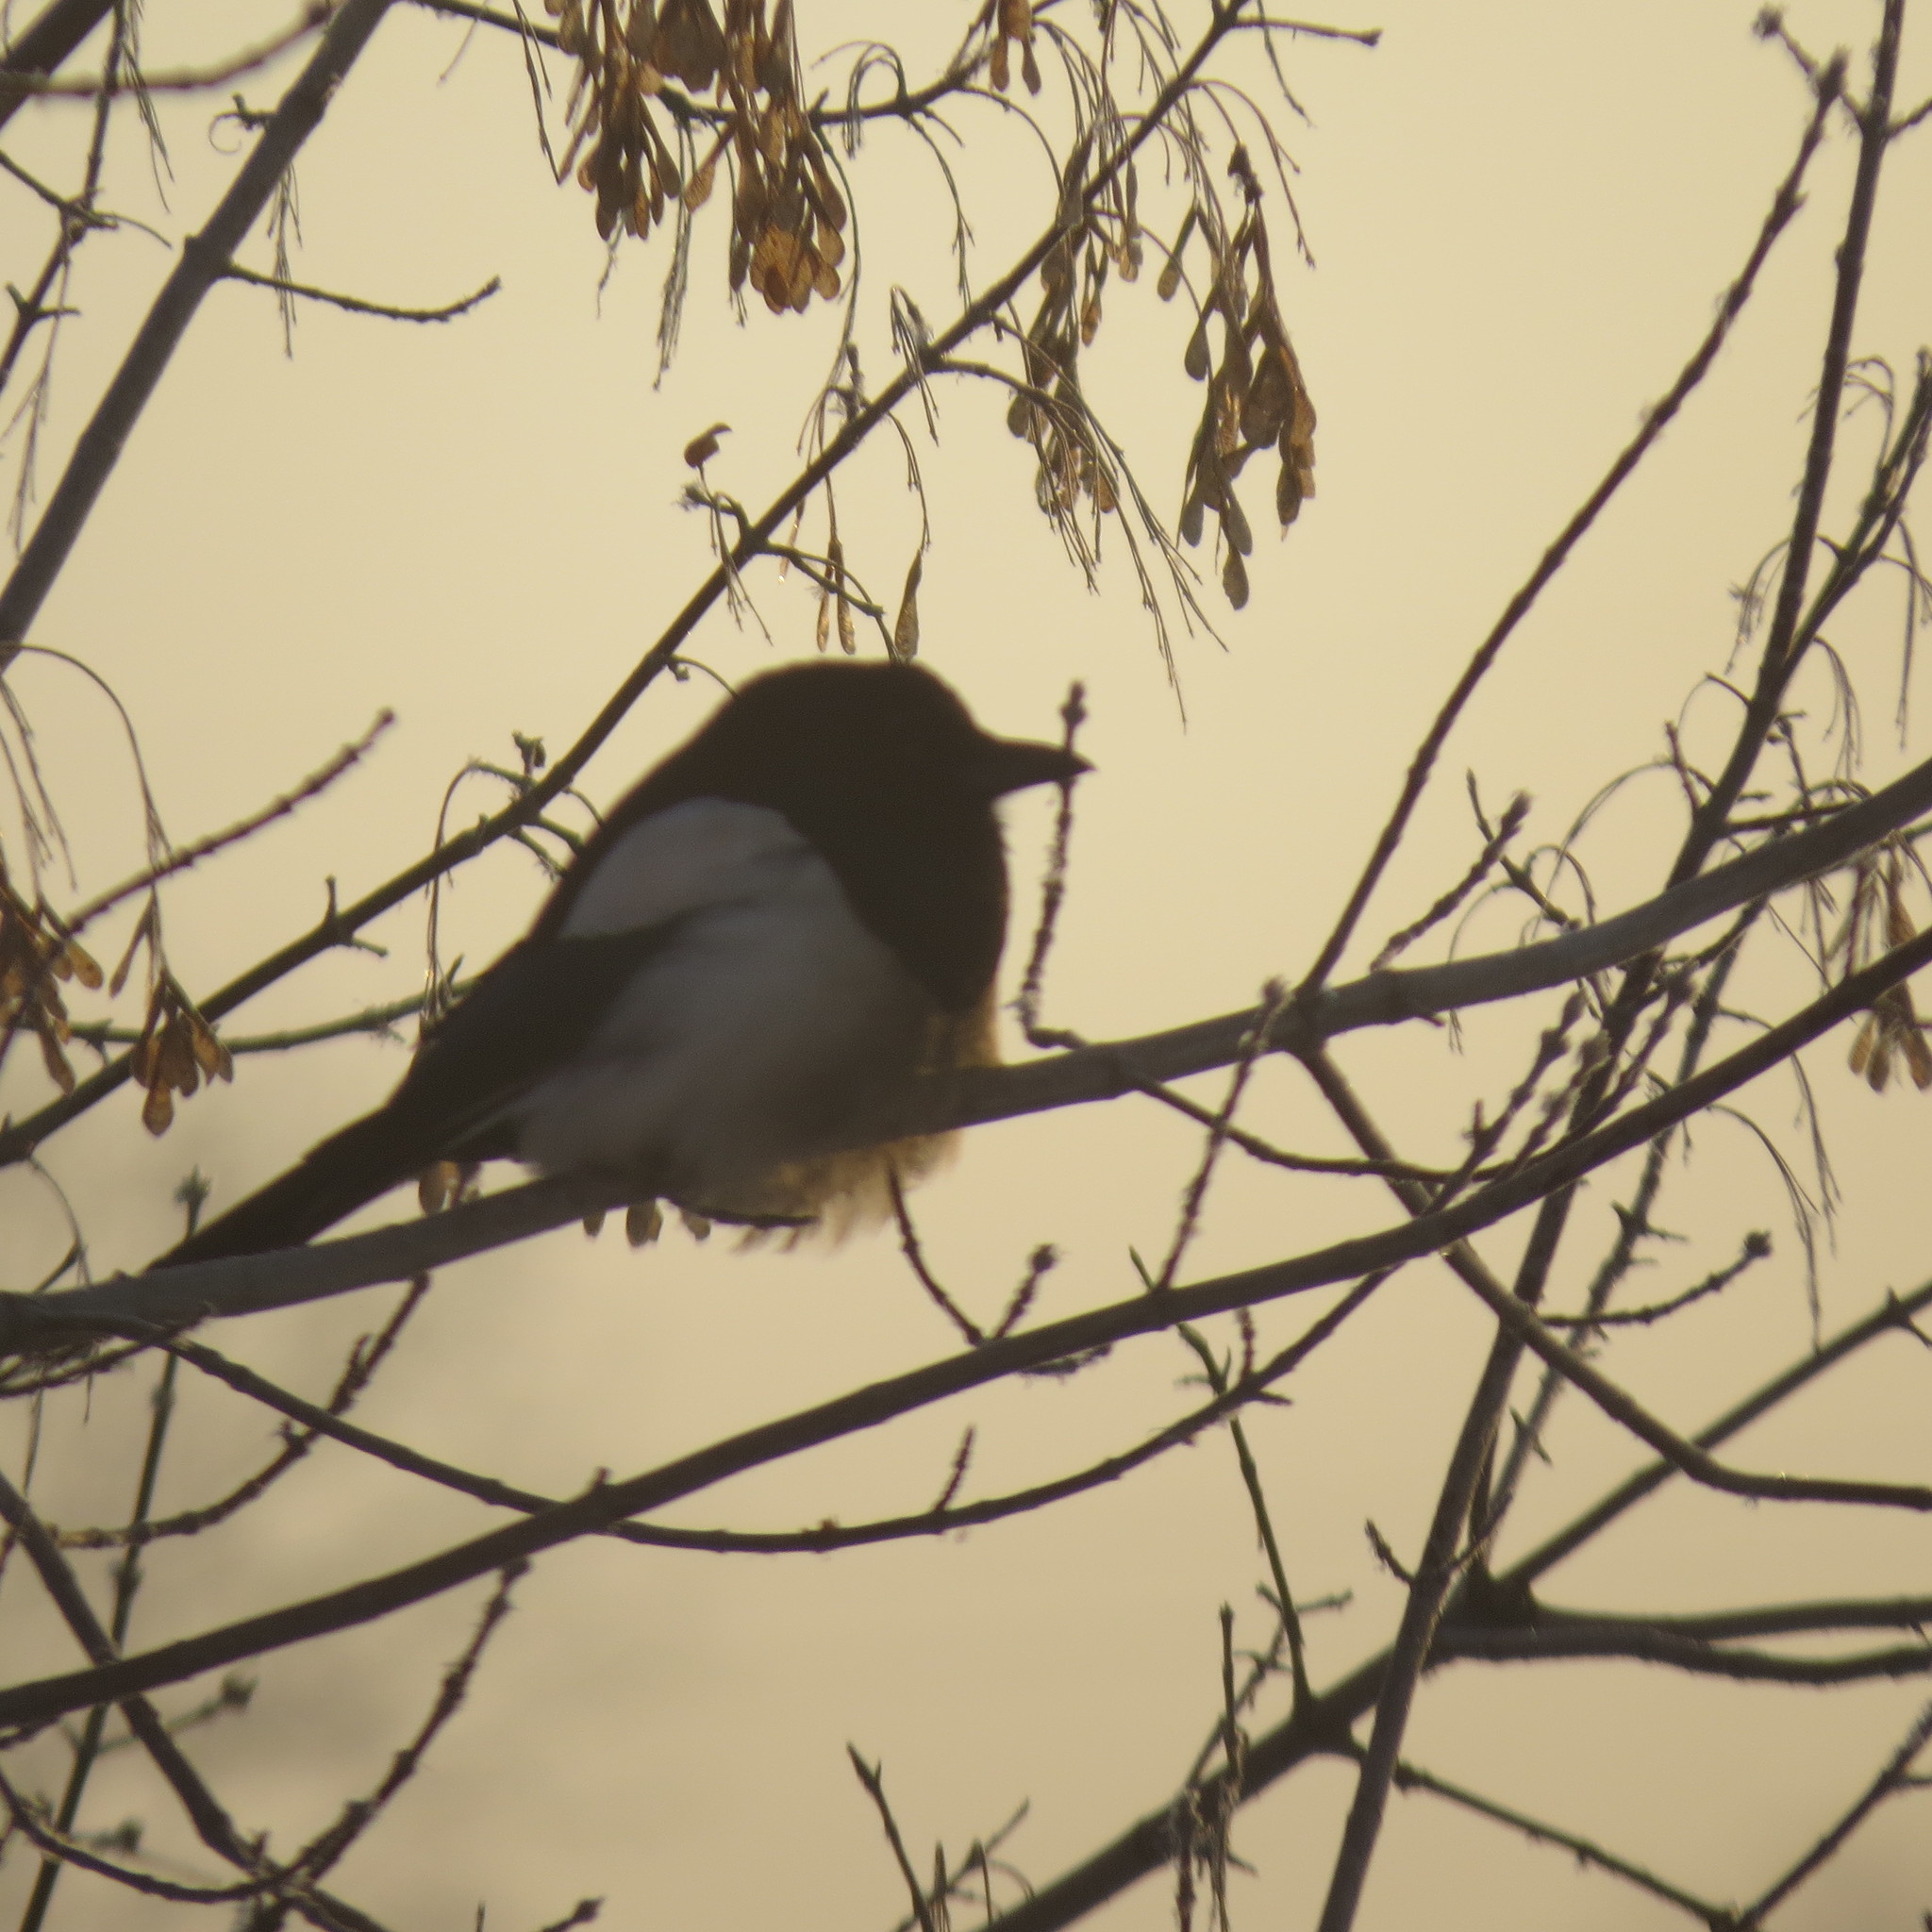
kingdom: Animalia
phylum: Chordata
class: Aves
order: Passeriformes
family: Corvidae
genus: Pica
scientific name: Pica pica
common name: Eurasian magpie
